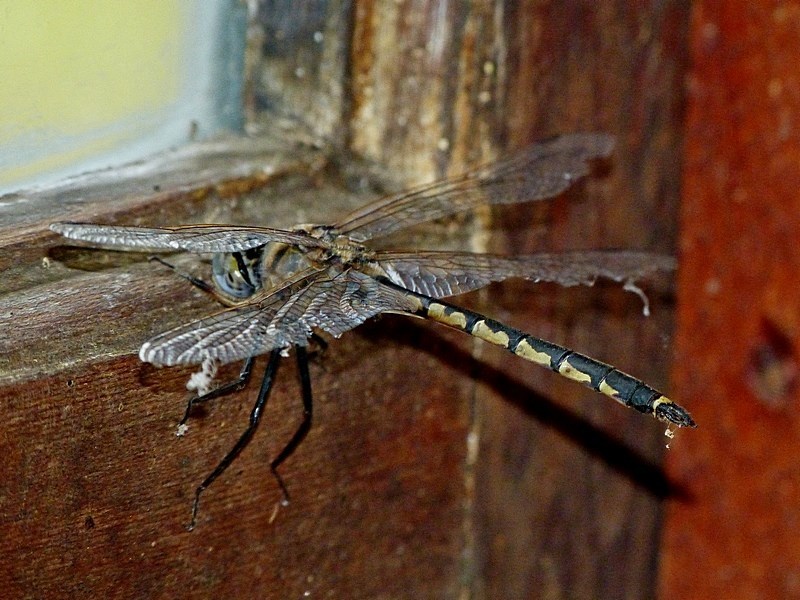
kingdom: Animalia
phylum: Arthropoda
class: Insecta
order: Odonata
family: Corduliidae
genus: Hemicordulia
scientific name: Hemicordulia tau
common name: Tau emerald
